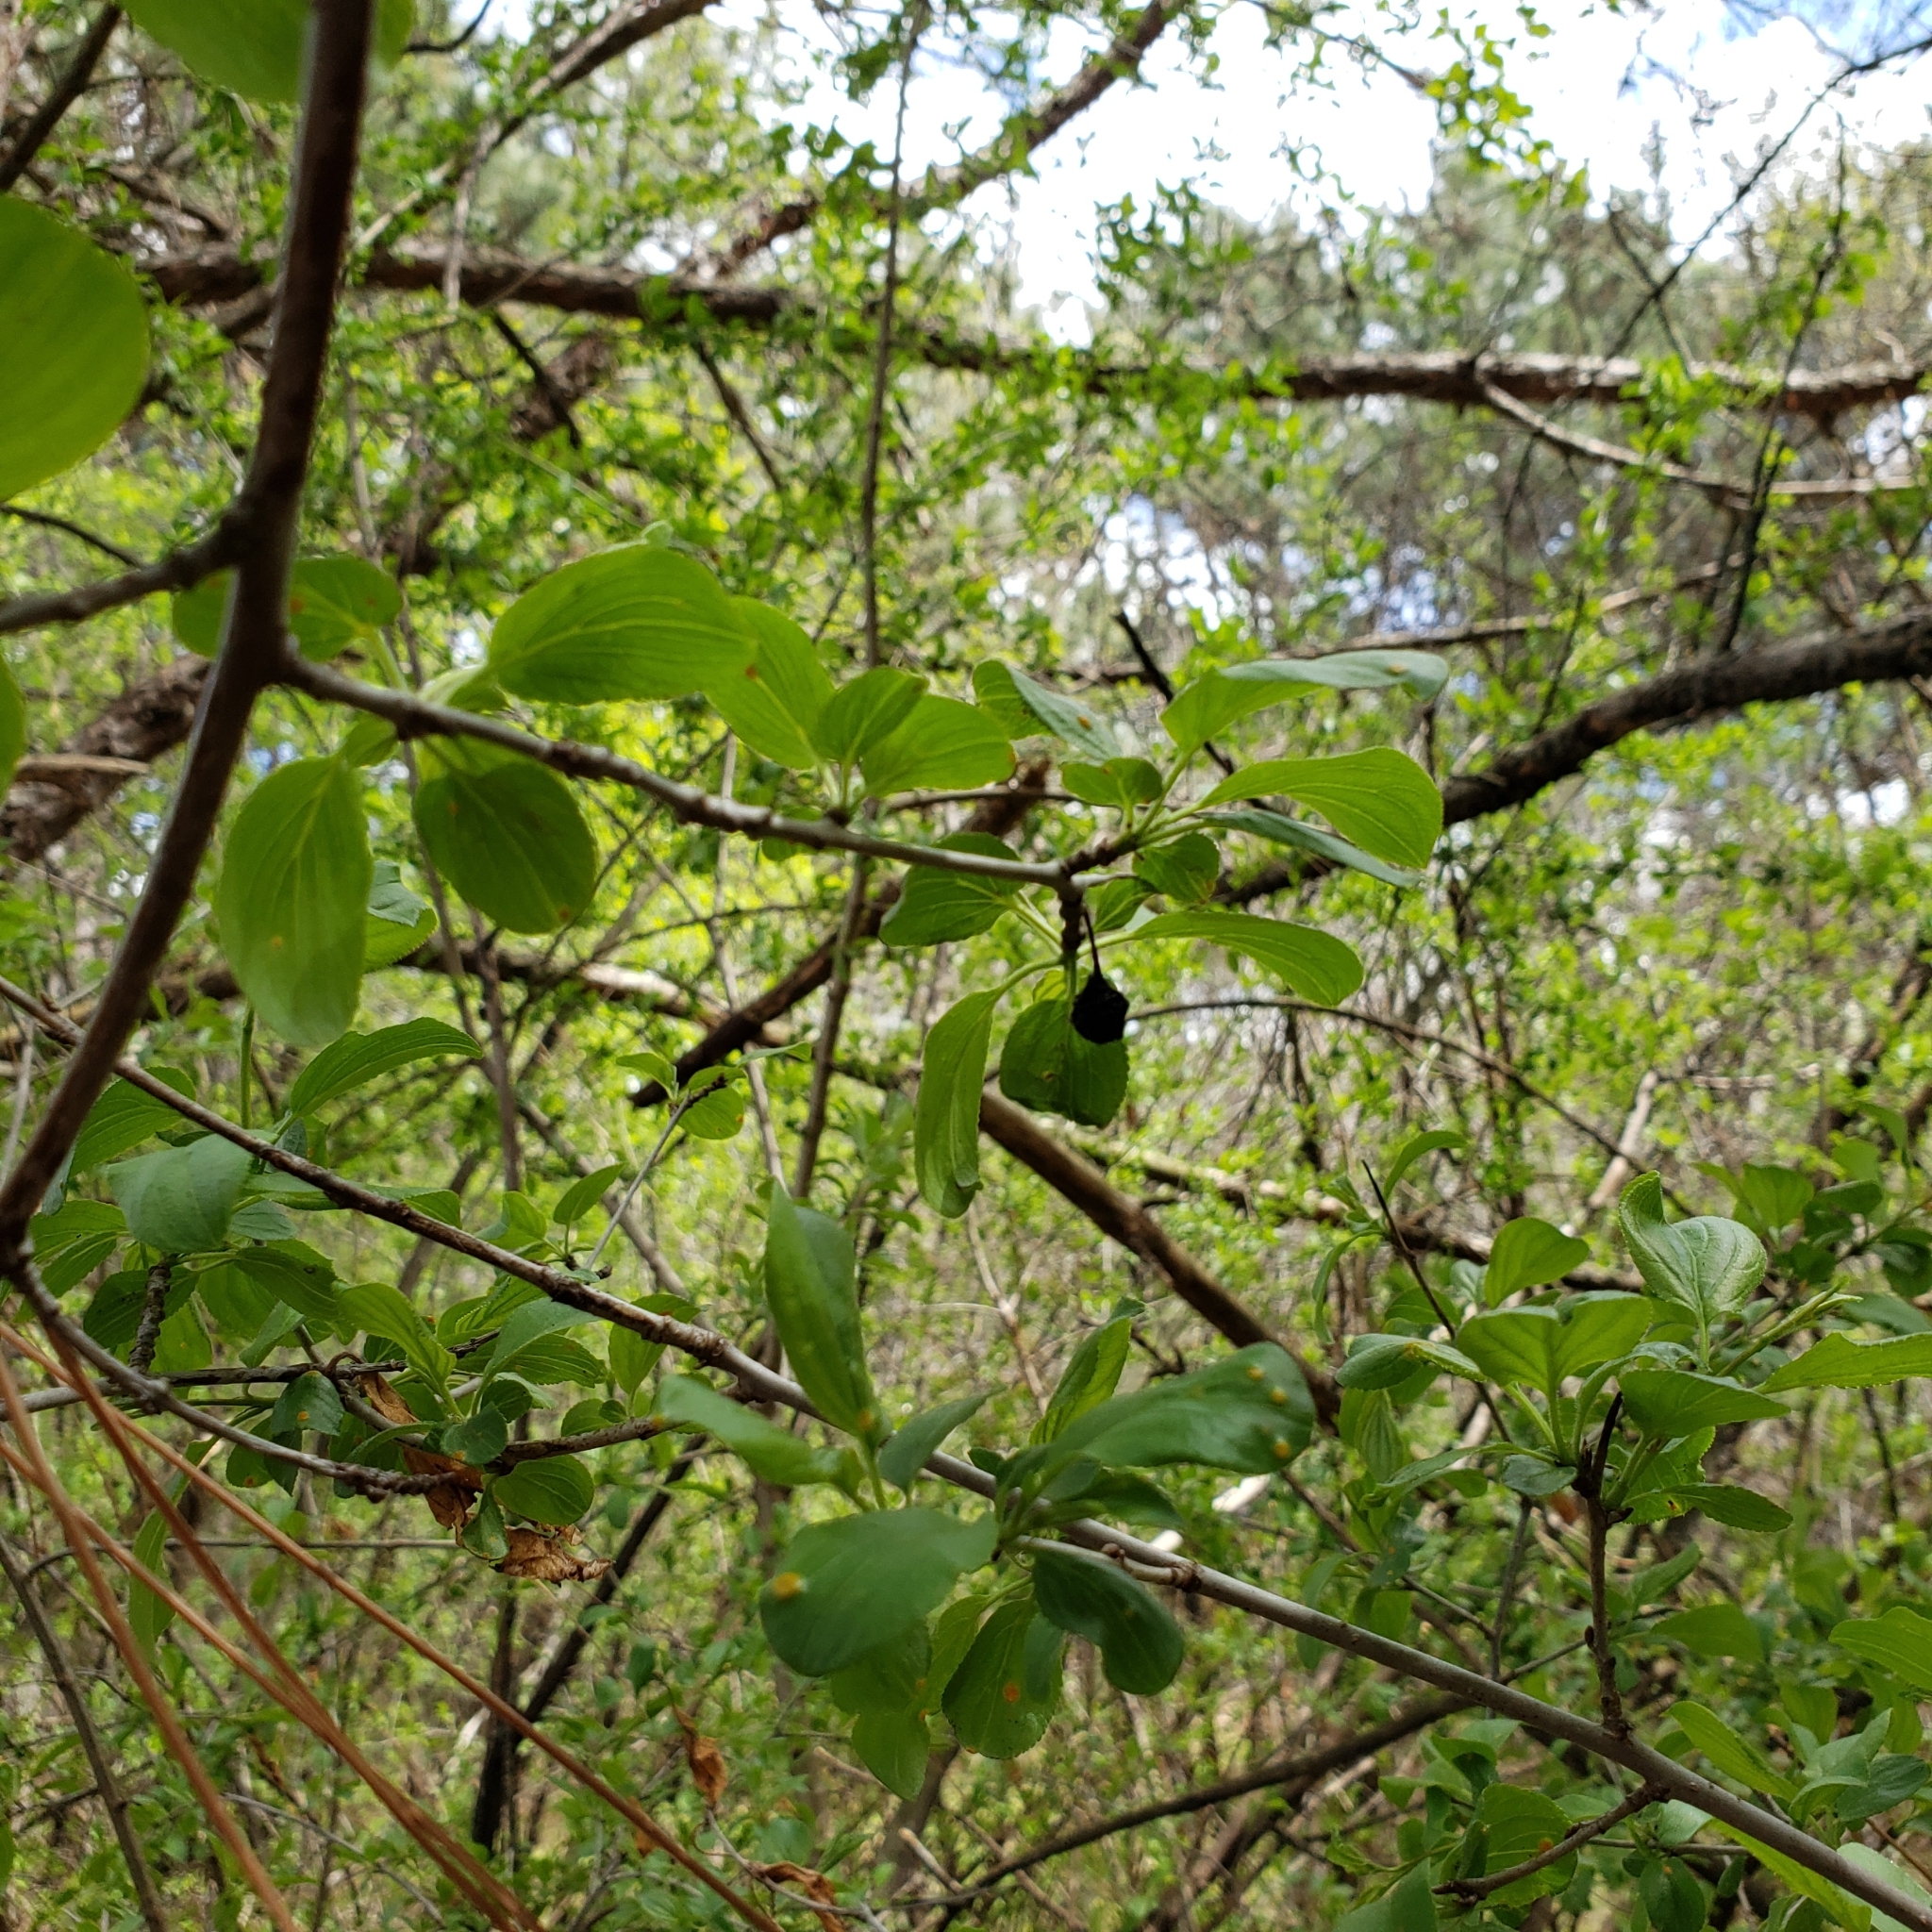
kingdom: Plantae
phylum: Tracheophyta
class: Magnoliopsida
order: Rosales
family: Rhamnaceae
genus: Rhamnus
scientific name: Rhamnus cathartica
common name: Common buckthorn
